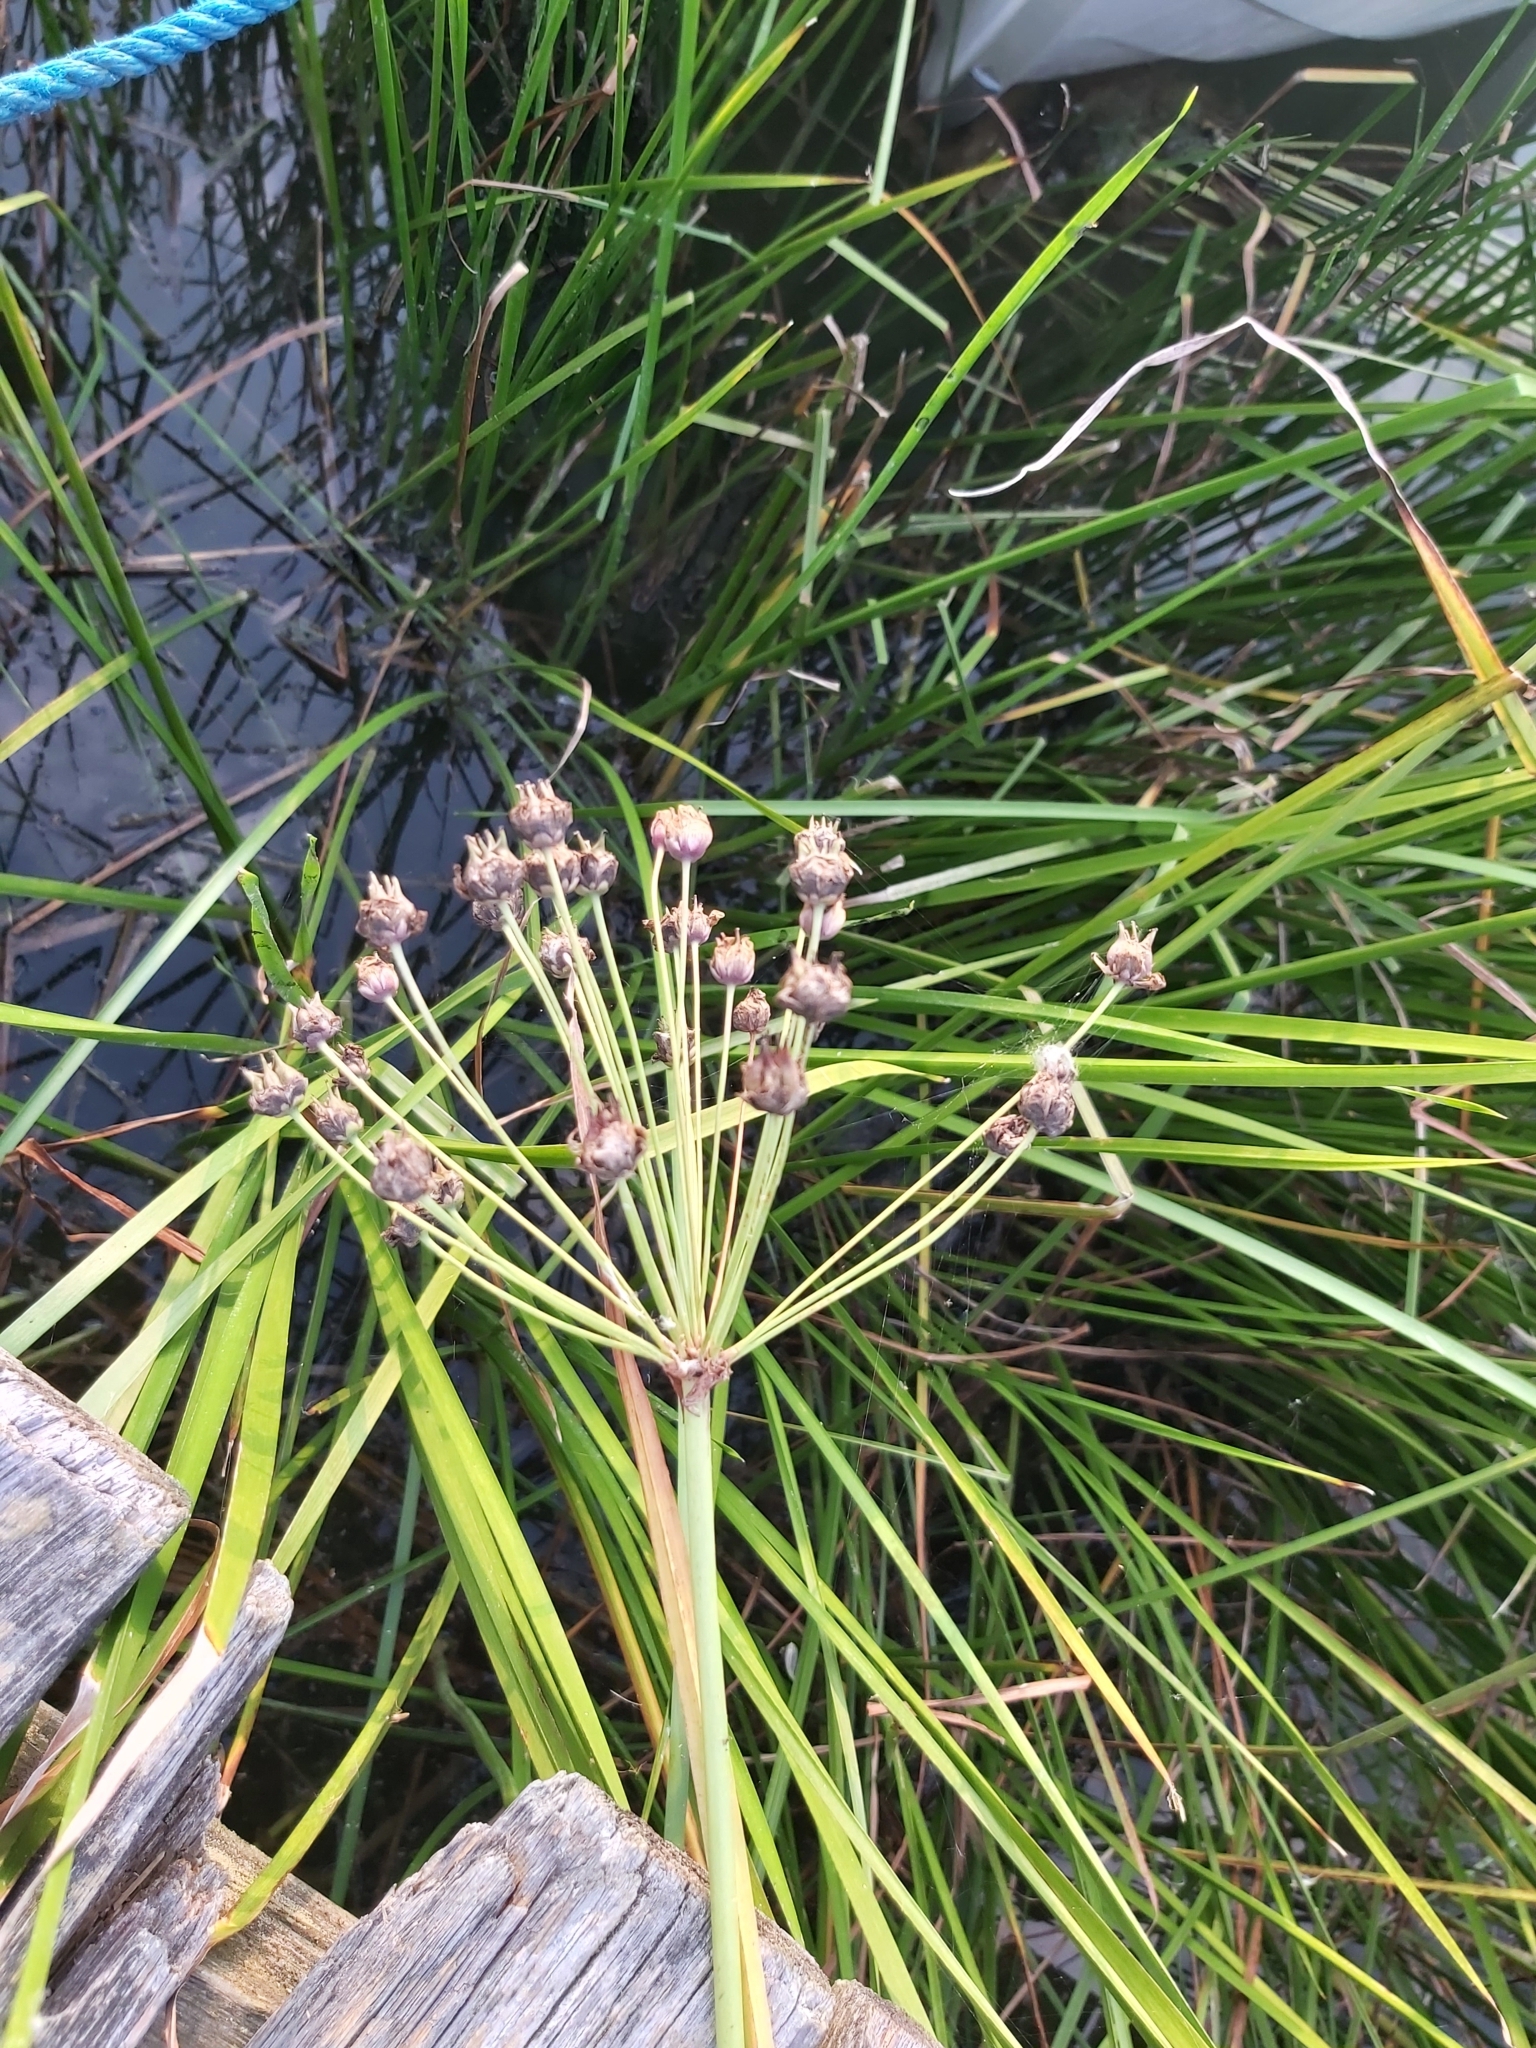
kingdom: Plantae
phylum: Tracheophyta
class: Liliopsida
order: Alismatales
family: Butomaceae
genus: Butomus
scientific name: Butomus umbellatus
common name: Flowering-rush
